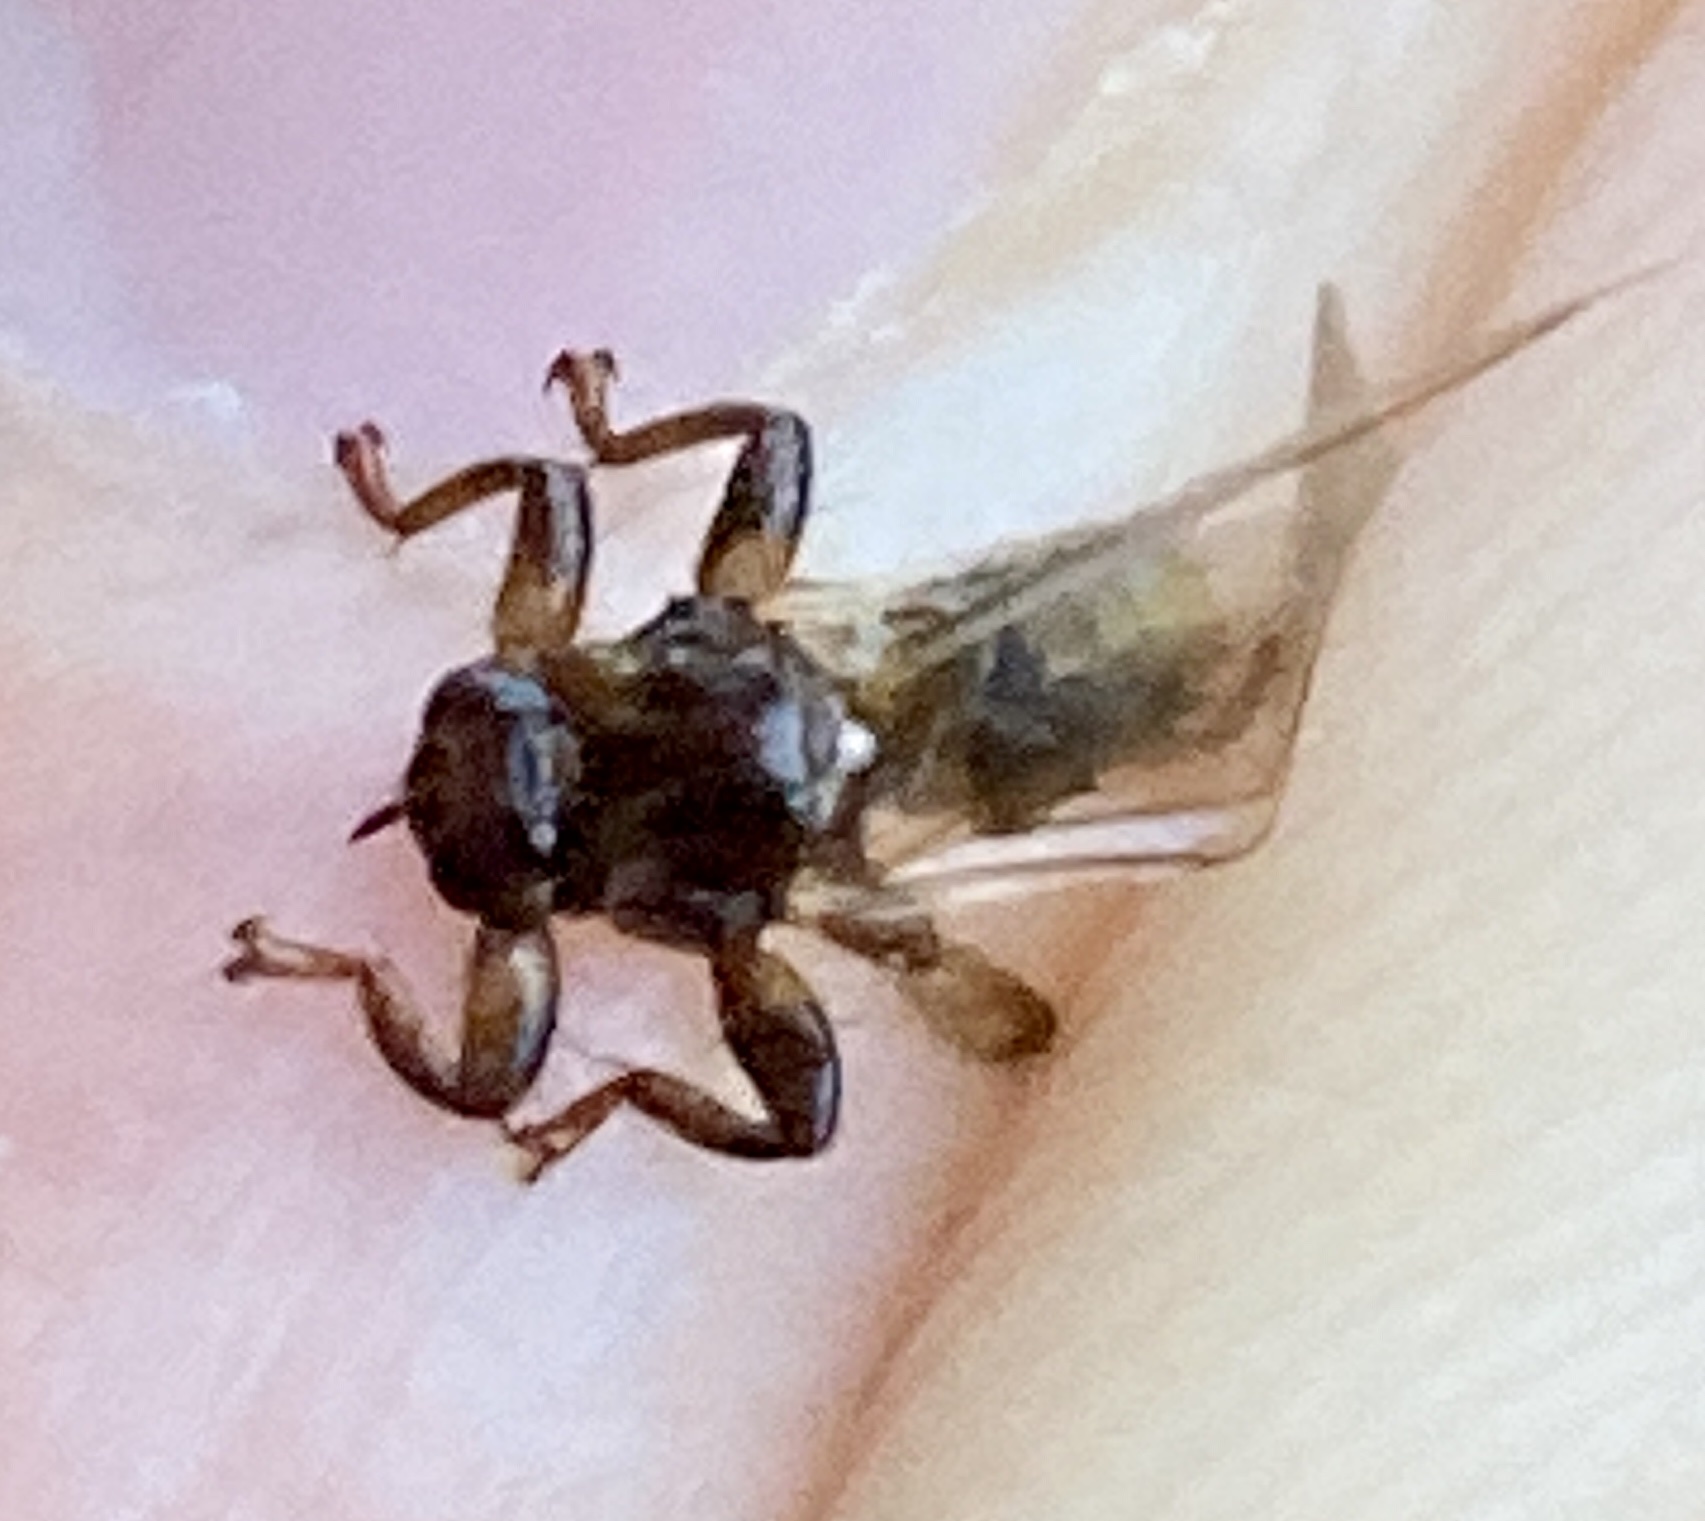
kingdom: Animalia
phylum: Arthropoda
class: Insecta
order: Diptera
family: Hippoboscidae
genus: Lipoptena
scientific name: Lipoptena cervi
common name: Deer ked
